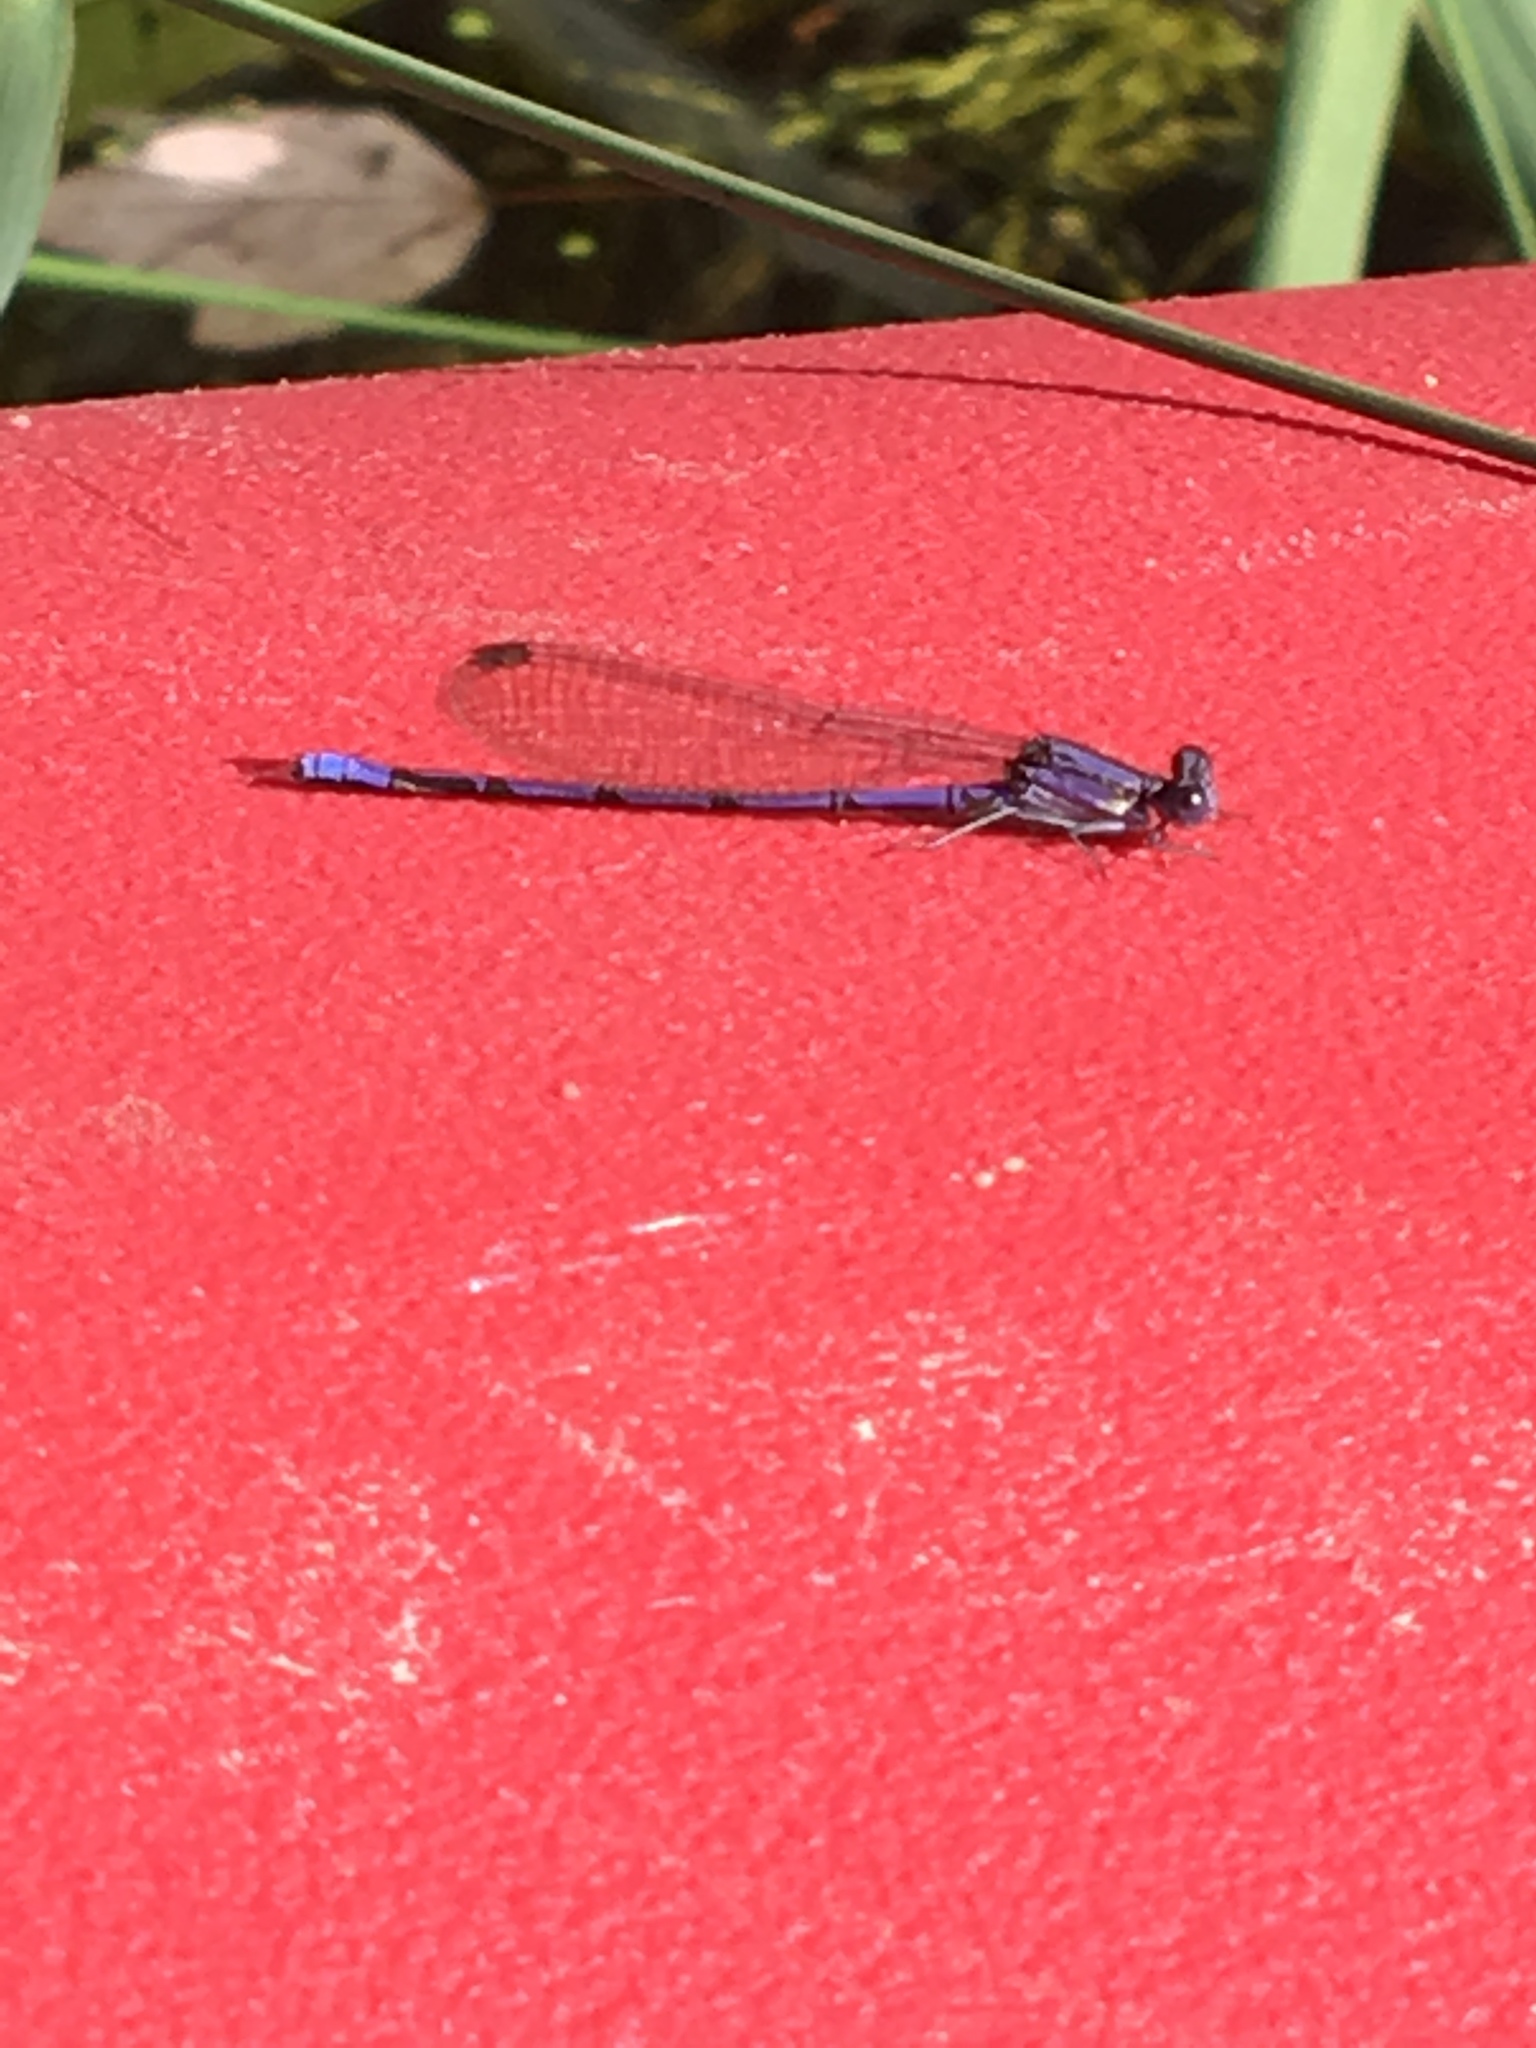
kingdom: Animalia
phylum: Arthropoda
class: Insecta
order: Odonata
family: Coenagrionidae
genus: Argia
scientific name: Argia fumipennis
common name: Variable dancer
